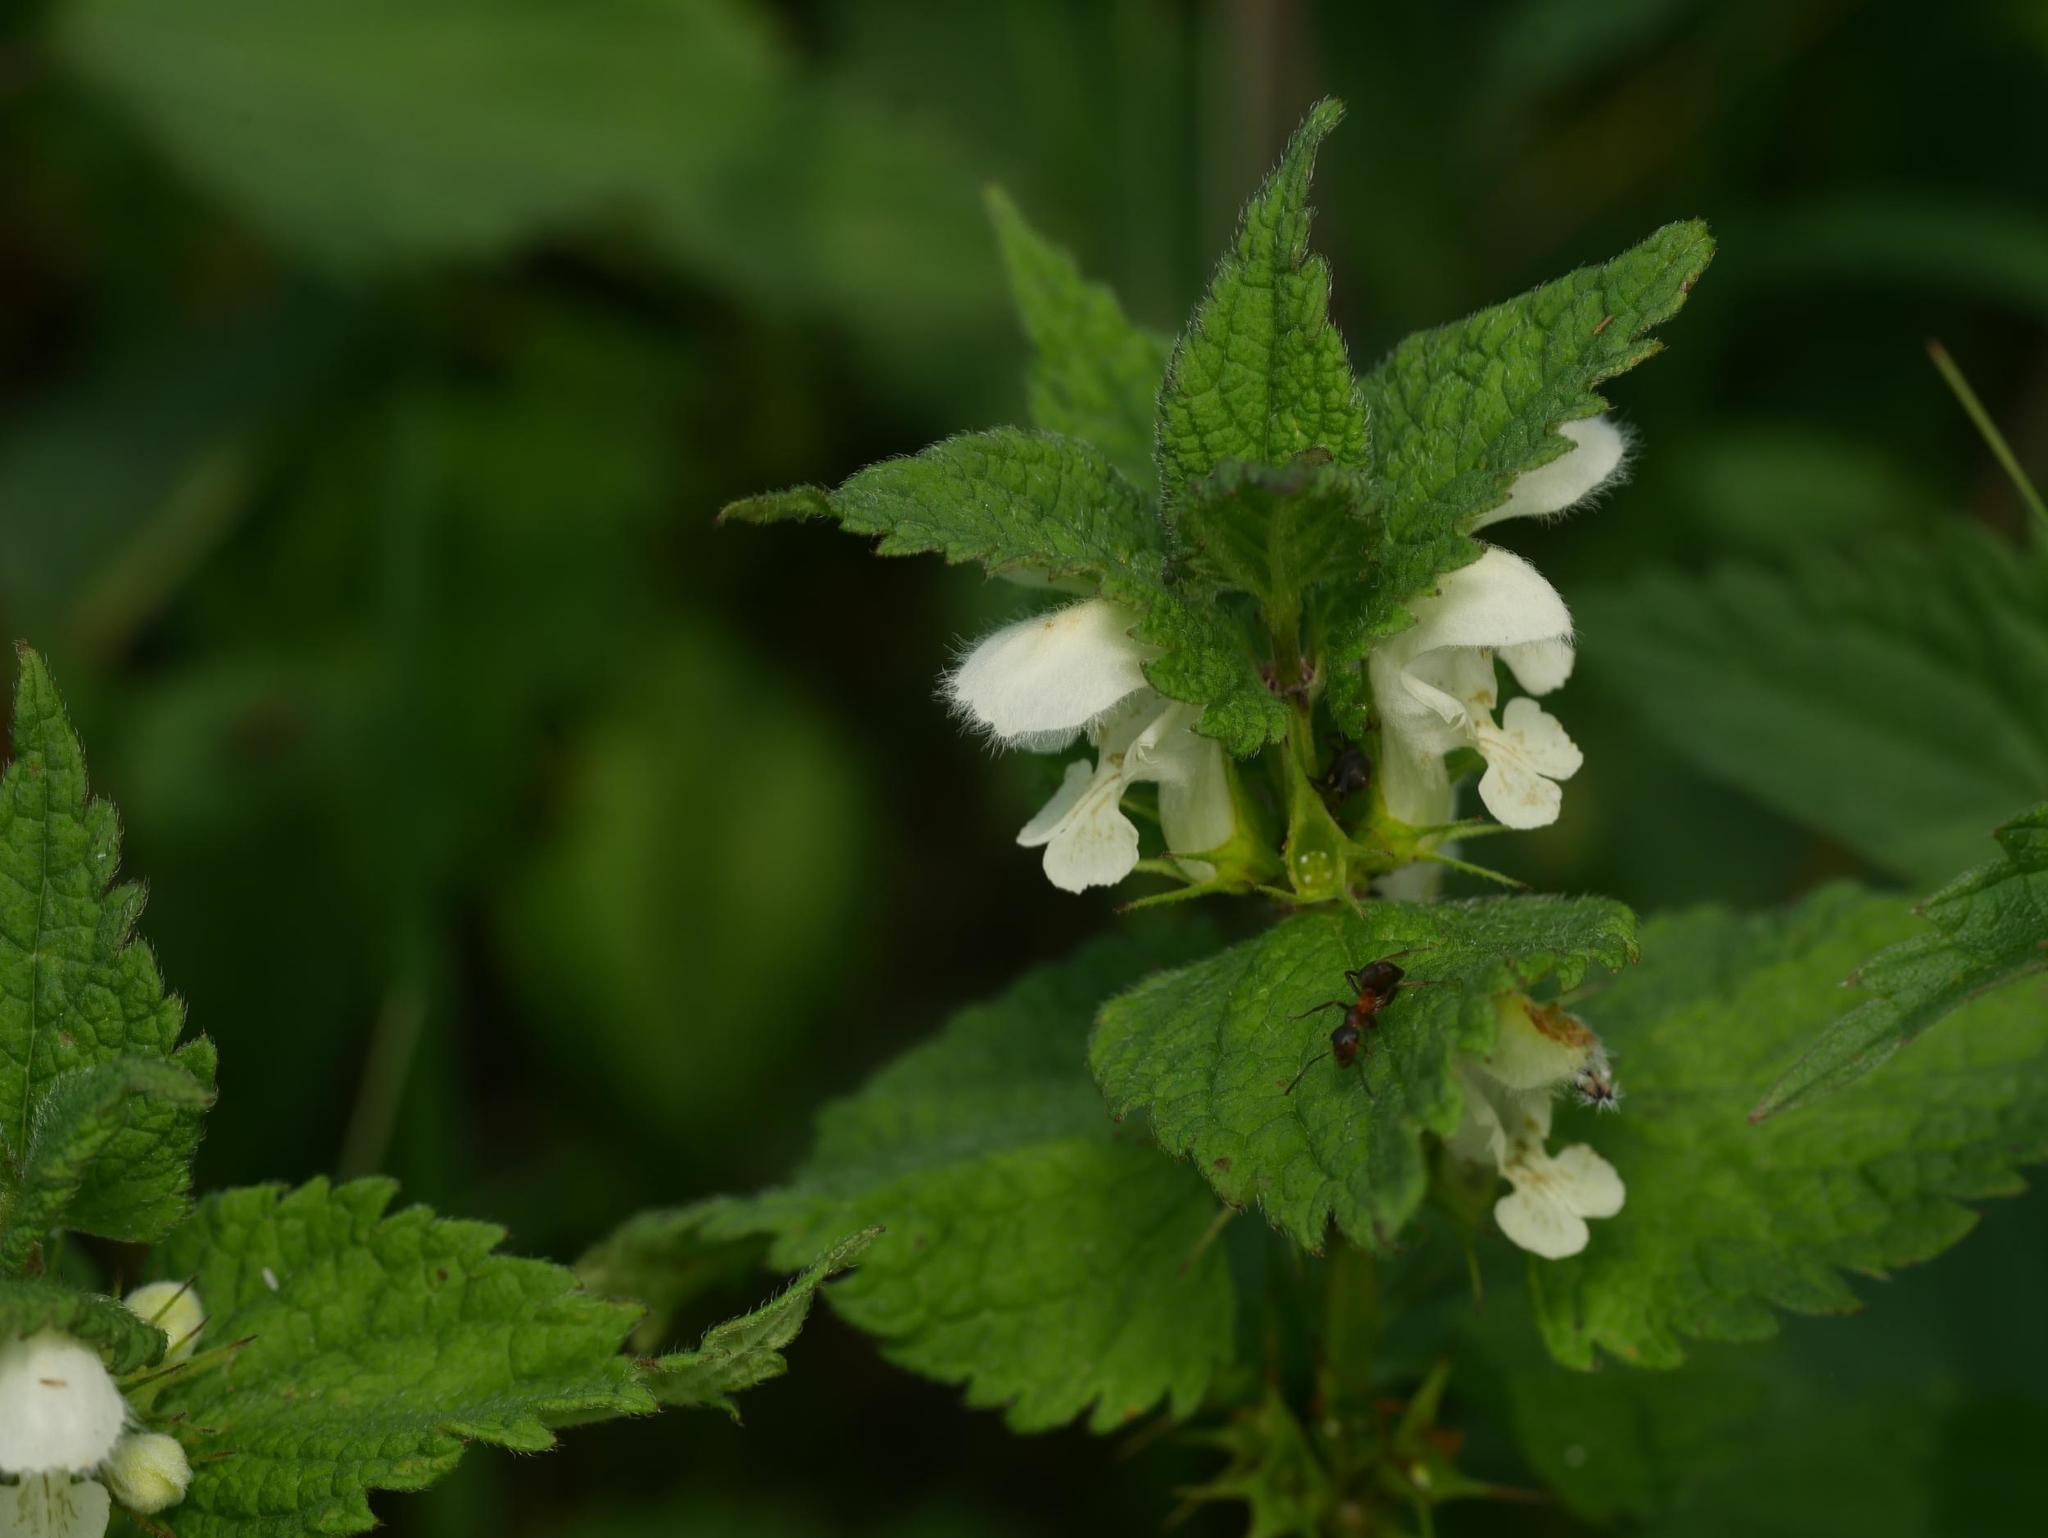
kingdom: Plantae
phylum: Tracheophyta
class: Magnoliopsida
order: Lamiales
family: Lamiaceae
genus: Lamium
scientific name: Lamium album
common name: White dead-nettle
